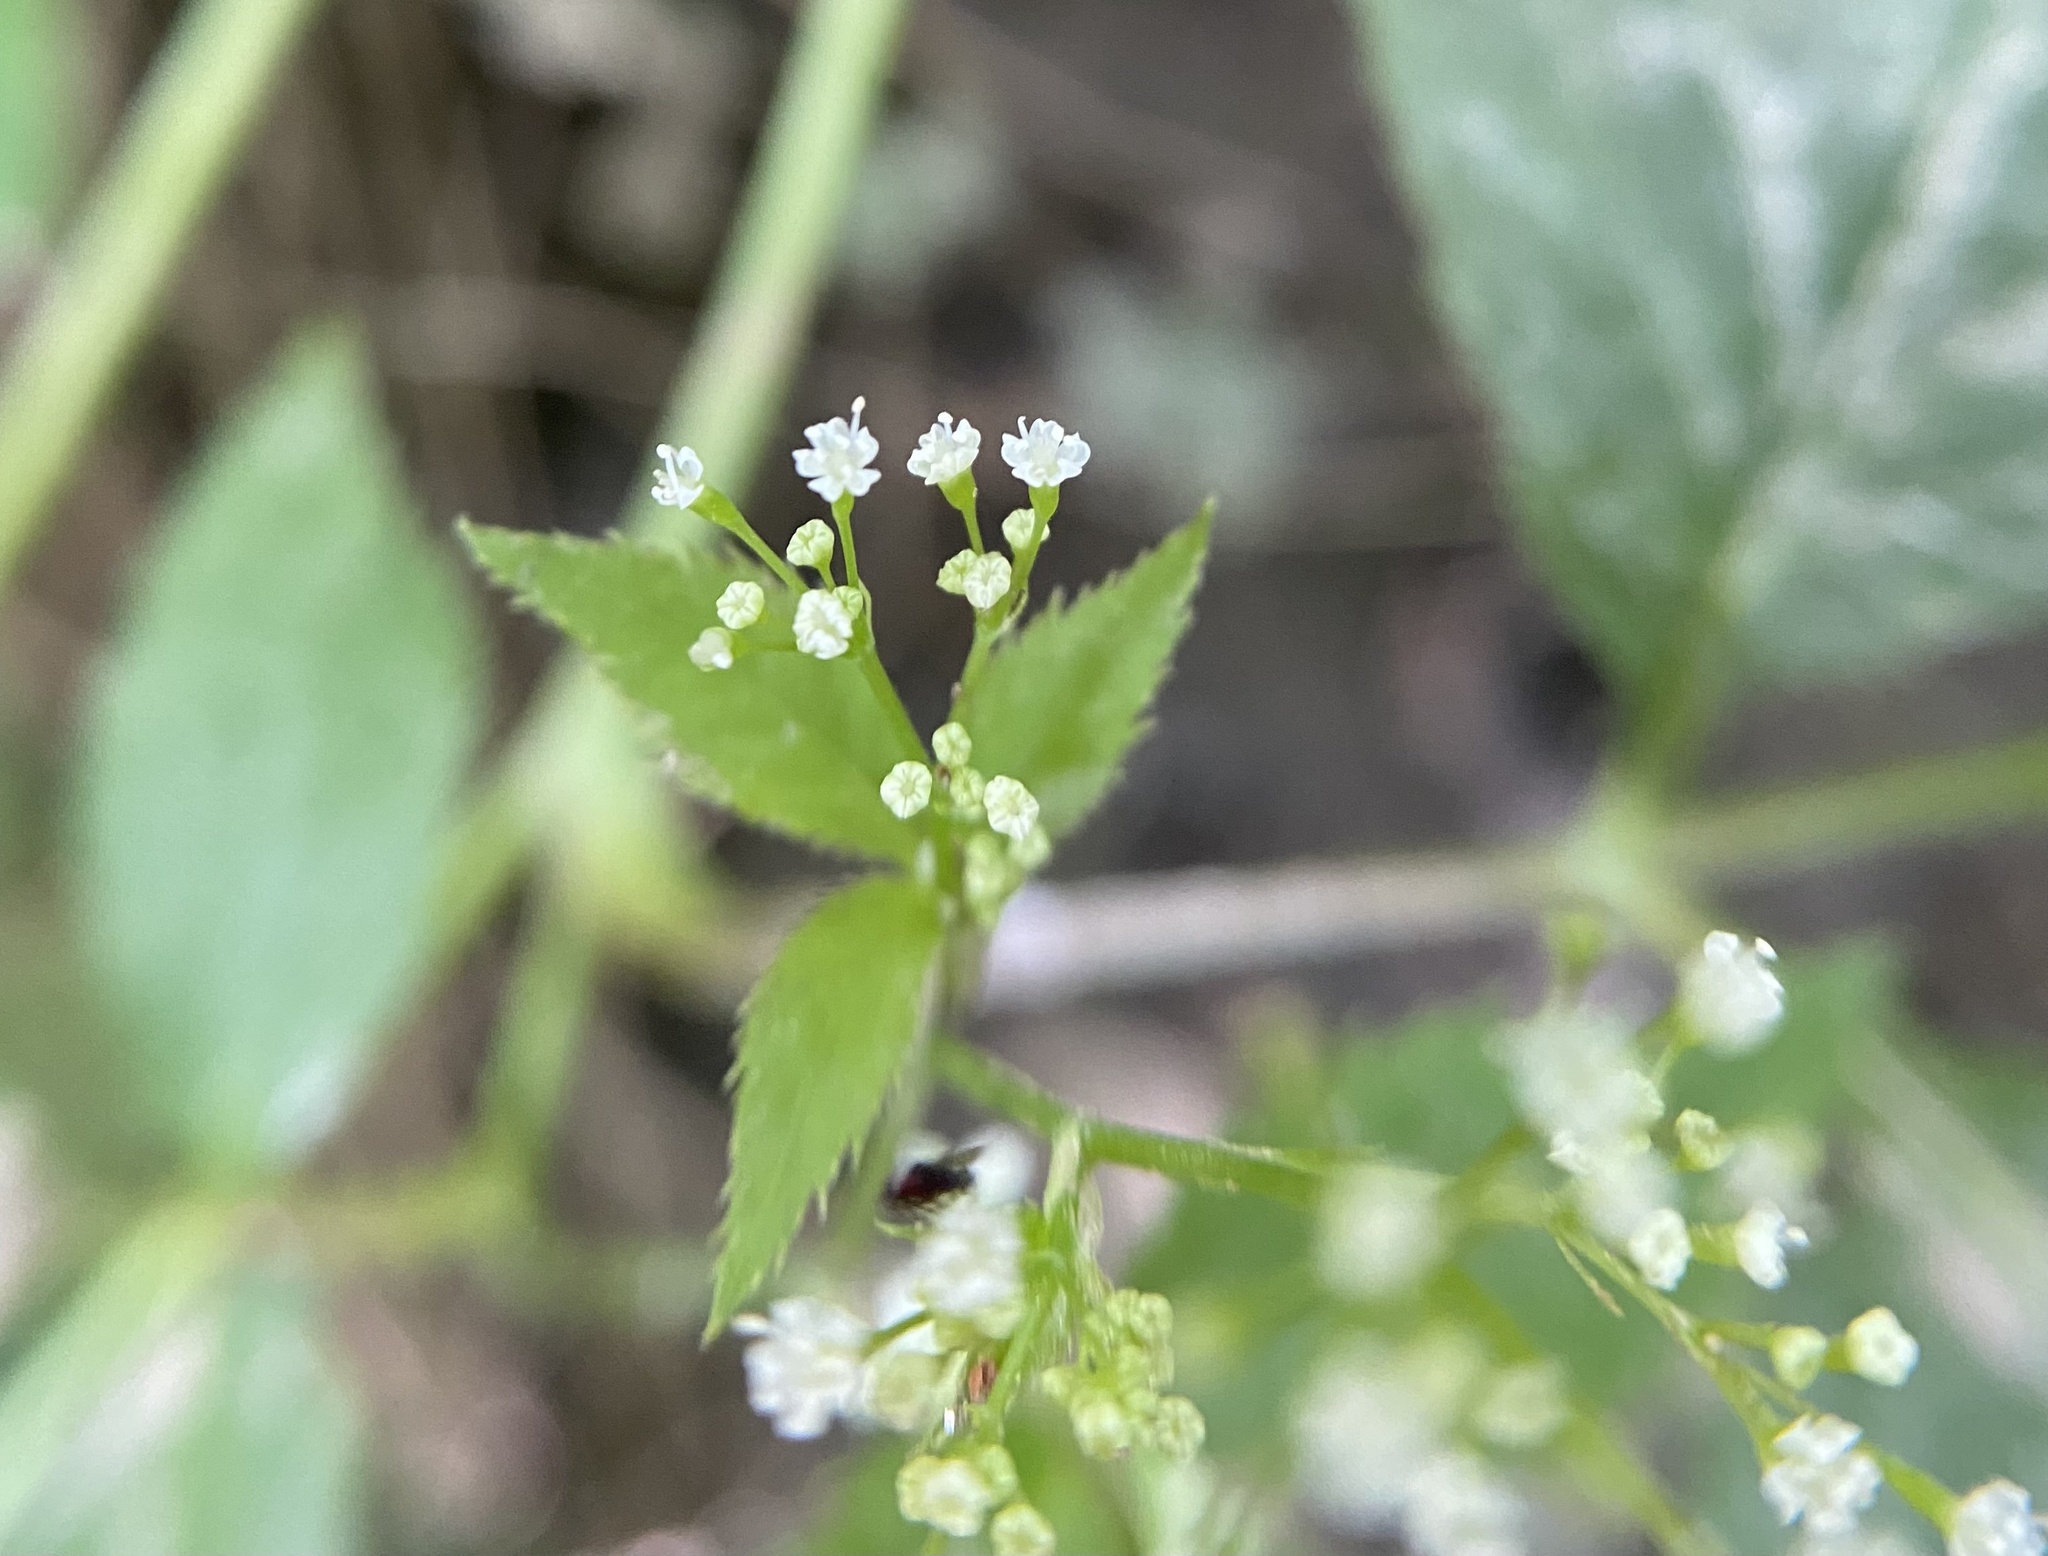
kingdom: Plantae
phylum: Tracheophyta
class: Magnoliopsida
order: Apiales
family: Apiaceae
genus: Cryptotaenia
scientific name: Cryptotaenia canadensis
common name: Honewort
